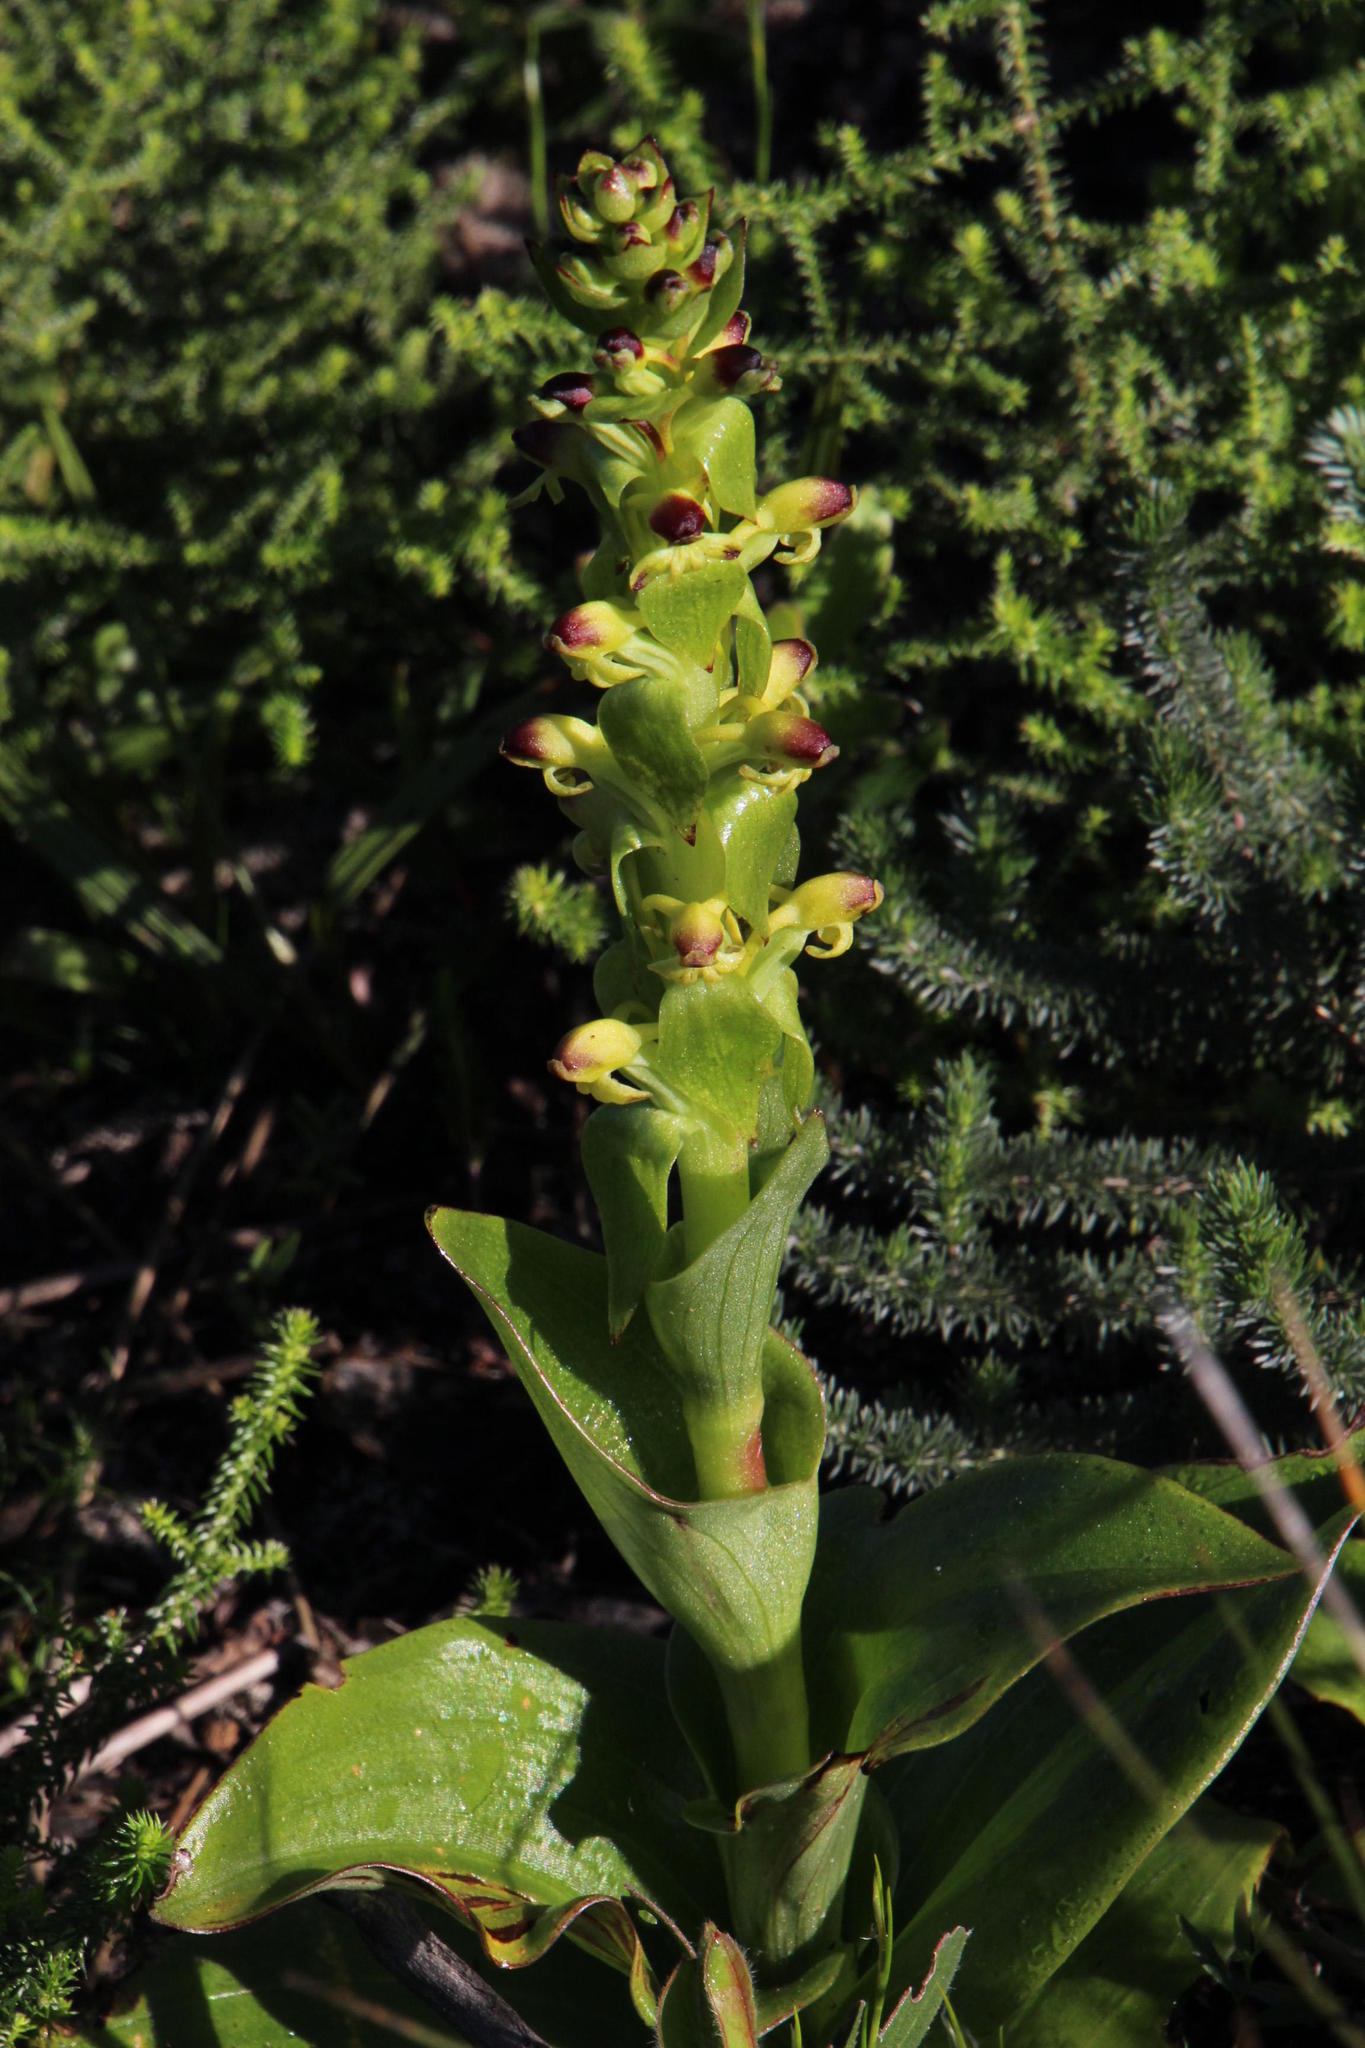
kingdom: Plantae
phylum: Tracheophyta
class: Liliopsida
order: Asparagales
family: Orchidaceae
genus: Satyrium
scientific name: Satyrium odorum
